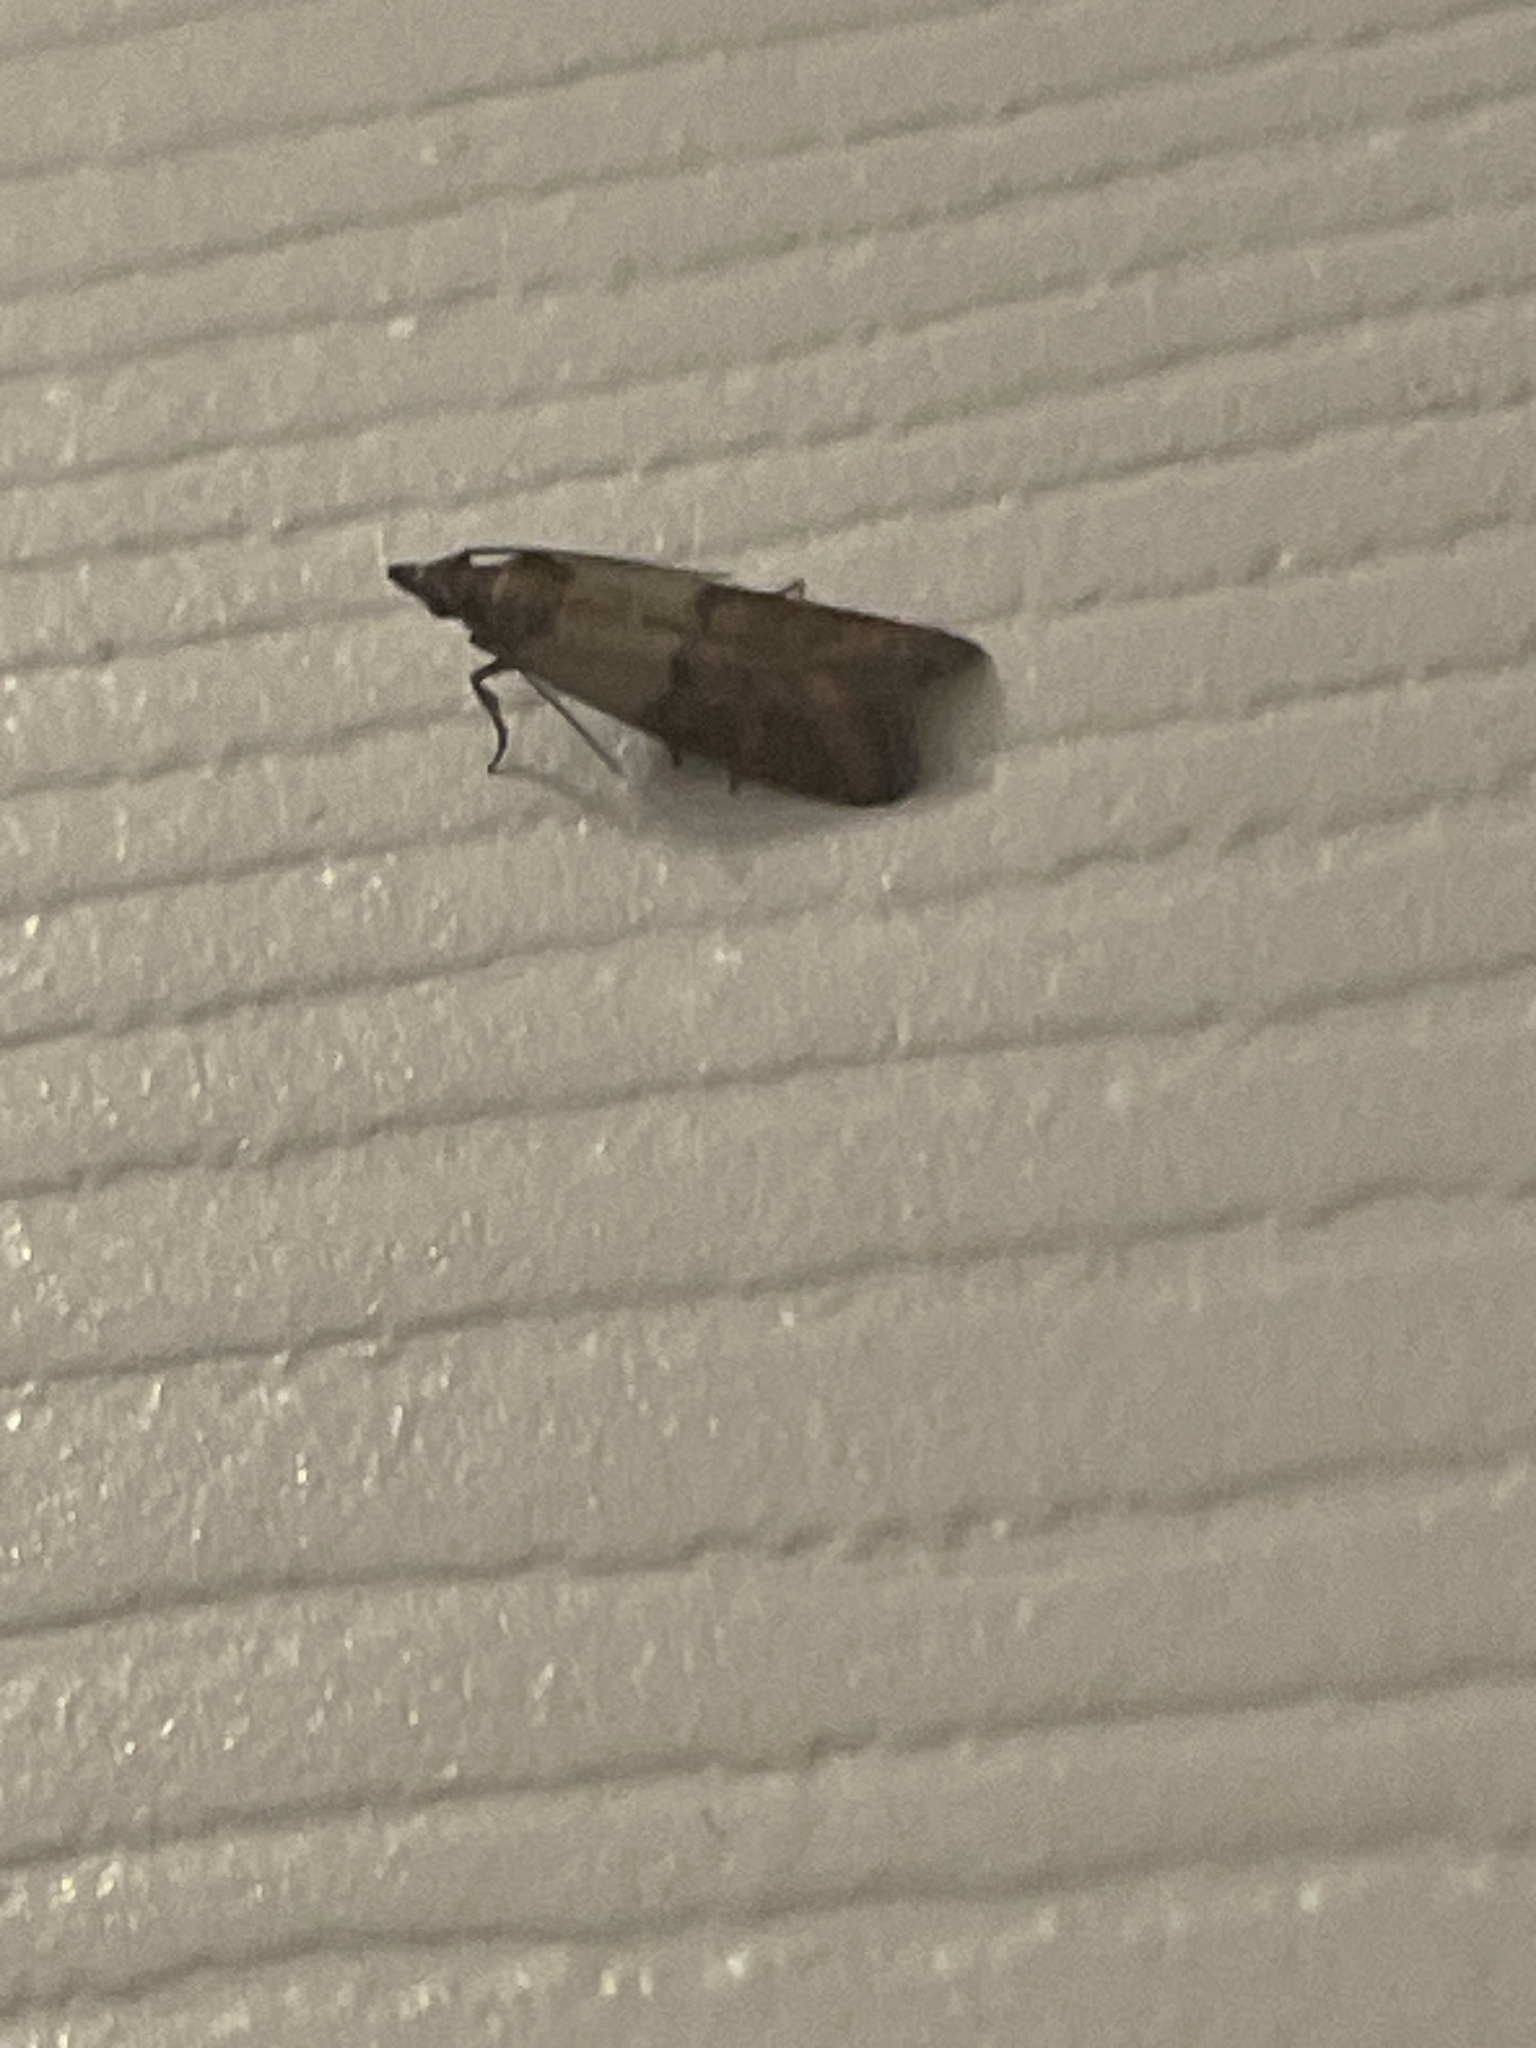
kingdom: Animalia
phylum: Arthropoda
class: Insecta
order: Lepidoptera
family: Pyralidae
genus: Plodia
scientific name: Plodia interpunctella
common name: Indian meal moth
